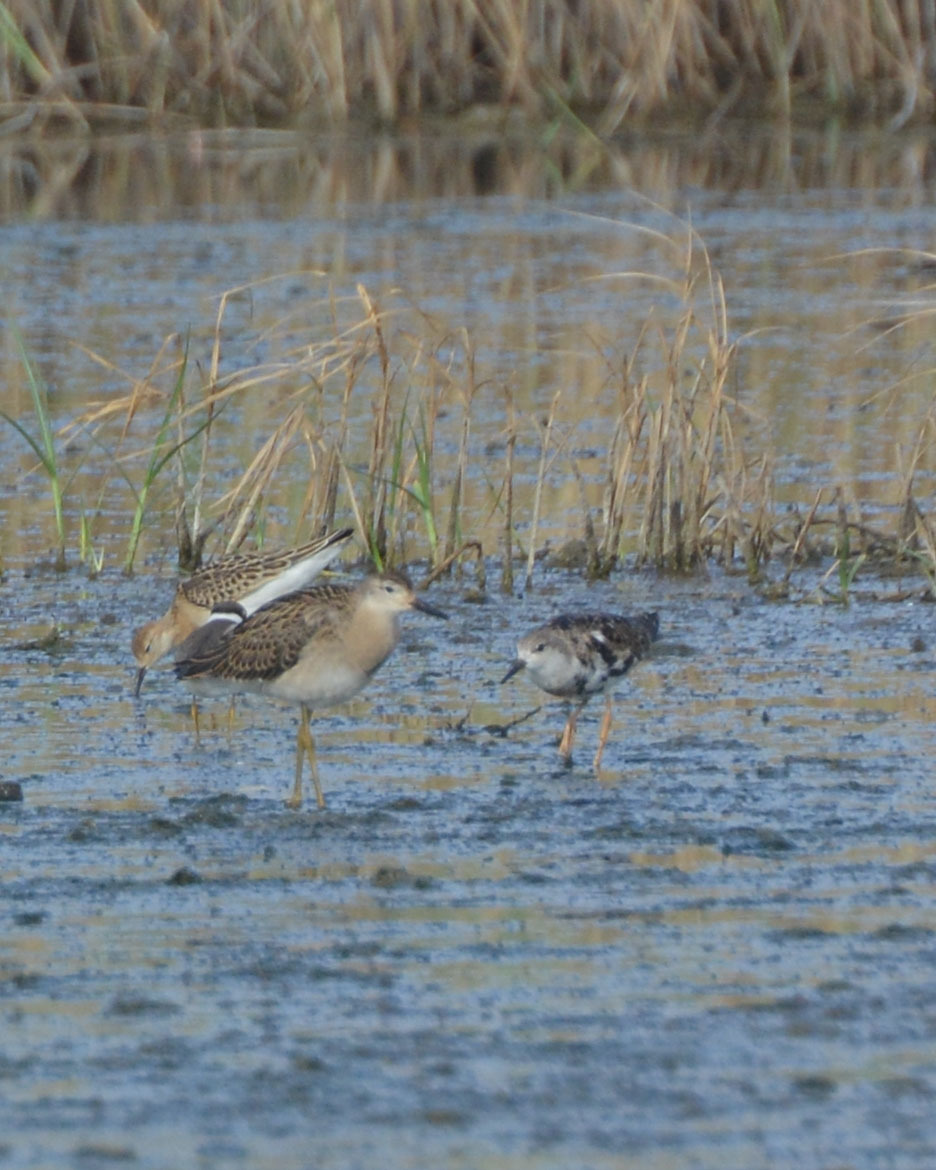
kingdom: Animalia
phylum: Chordata
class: Aves
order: Charadriiformes
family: Scolopacidae
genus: Calidris
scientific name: Calidris pugnax
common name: Ruff
